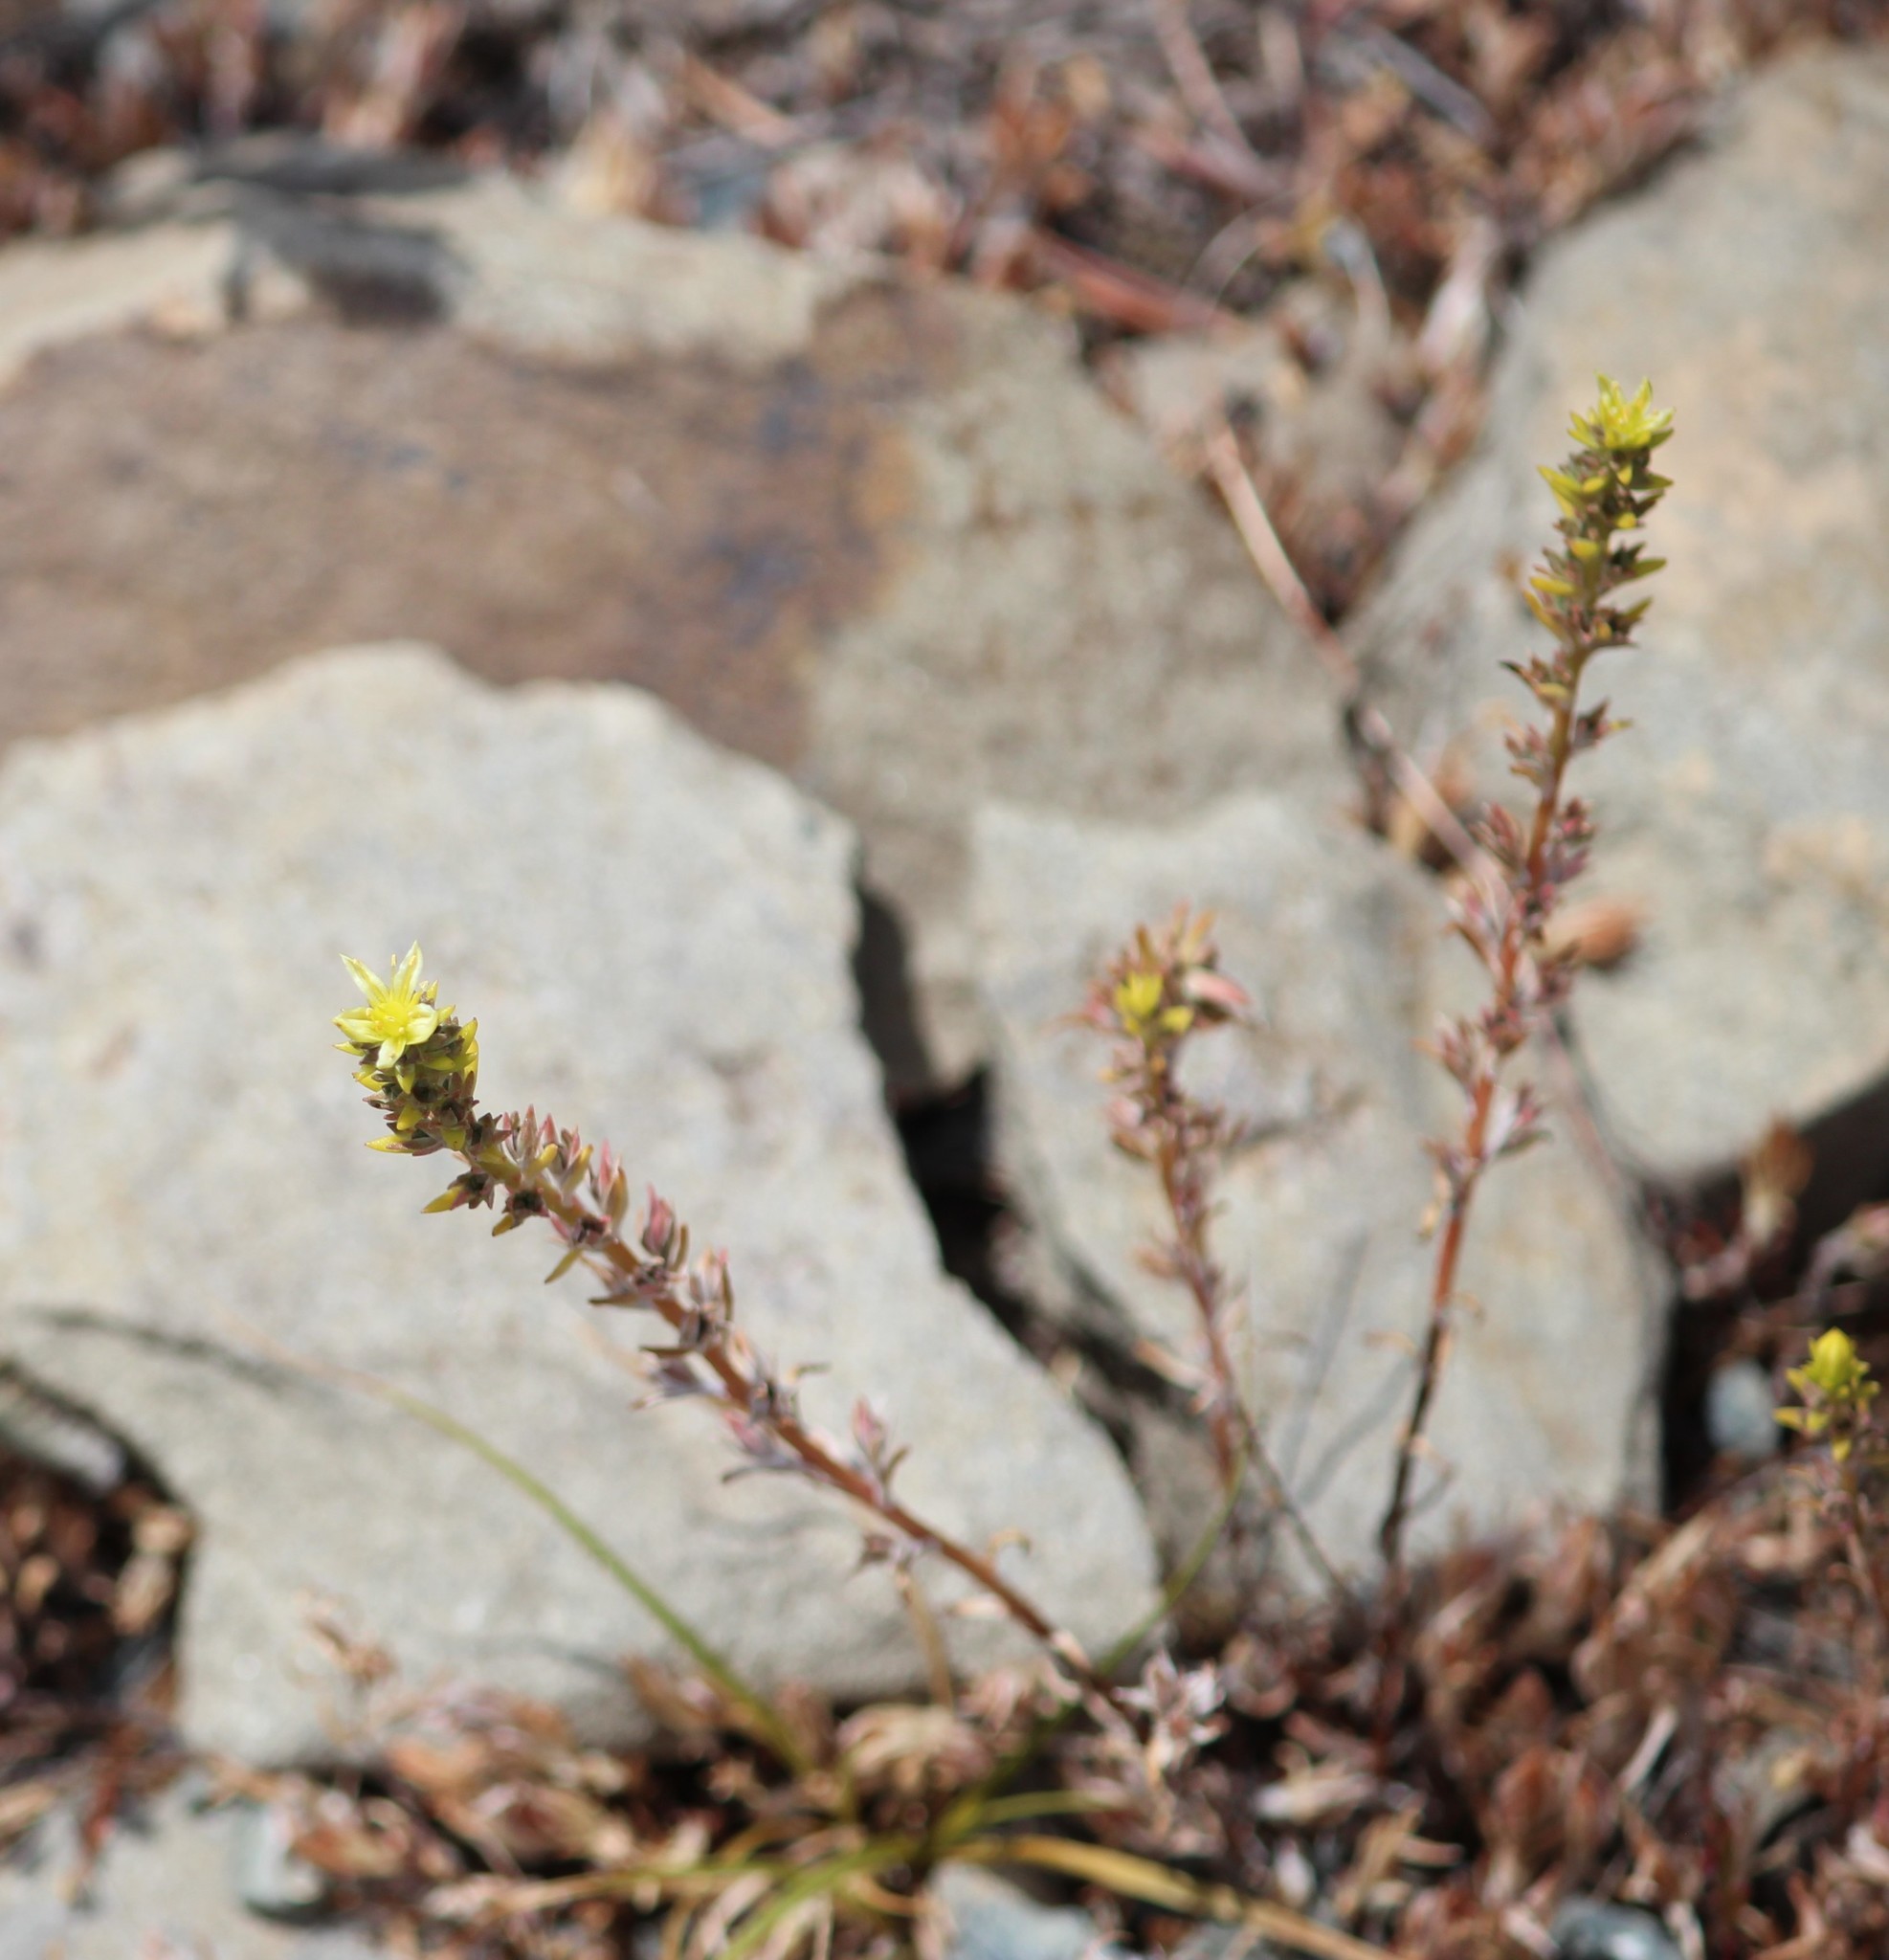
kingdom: Plantae
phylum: Tracheophyta
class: Magnoliopsida
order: Saxifragales
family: Crassulaceae
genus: Sedum
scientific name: Sedum stenopetalum
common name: Narrow-petaled stonecrop
